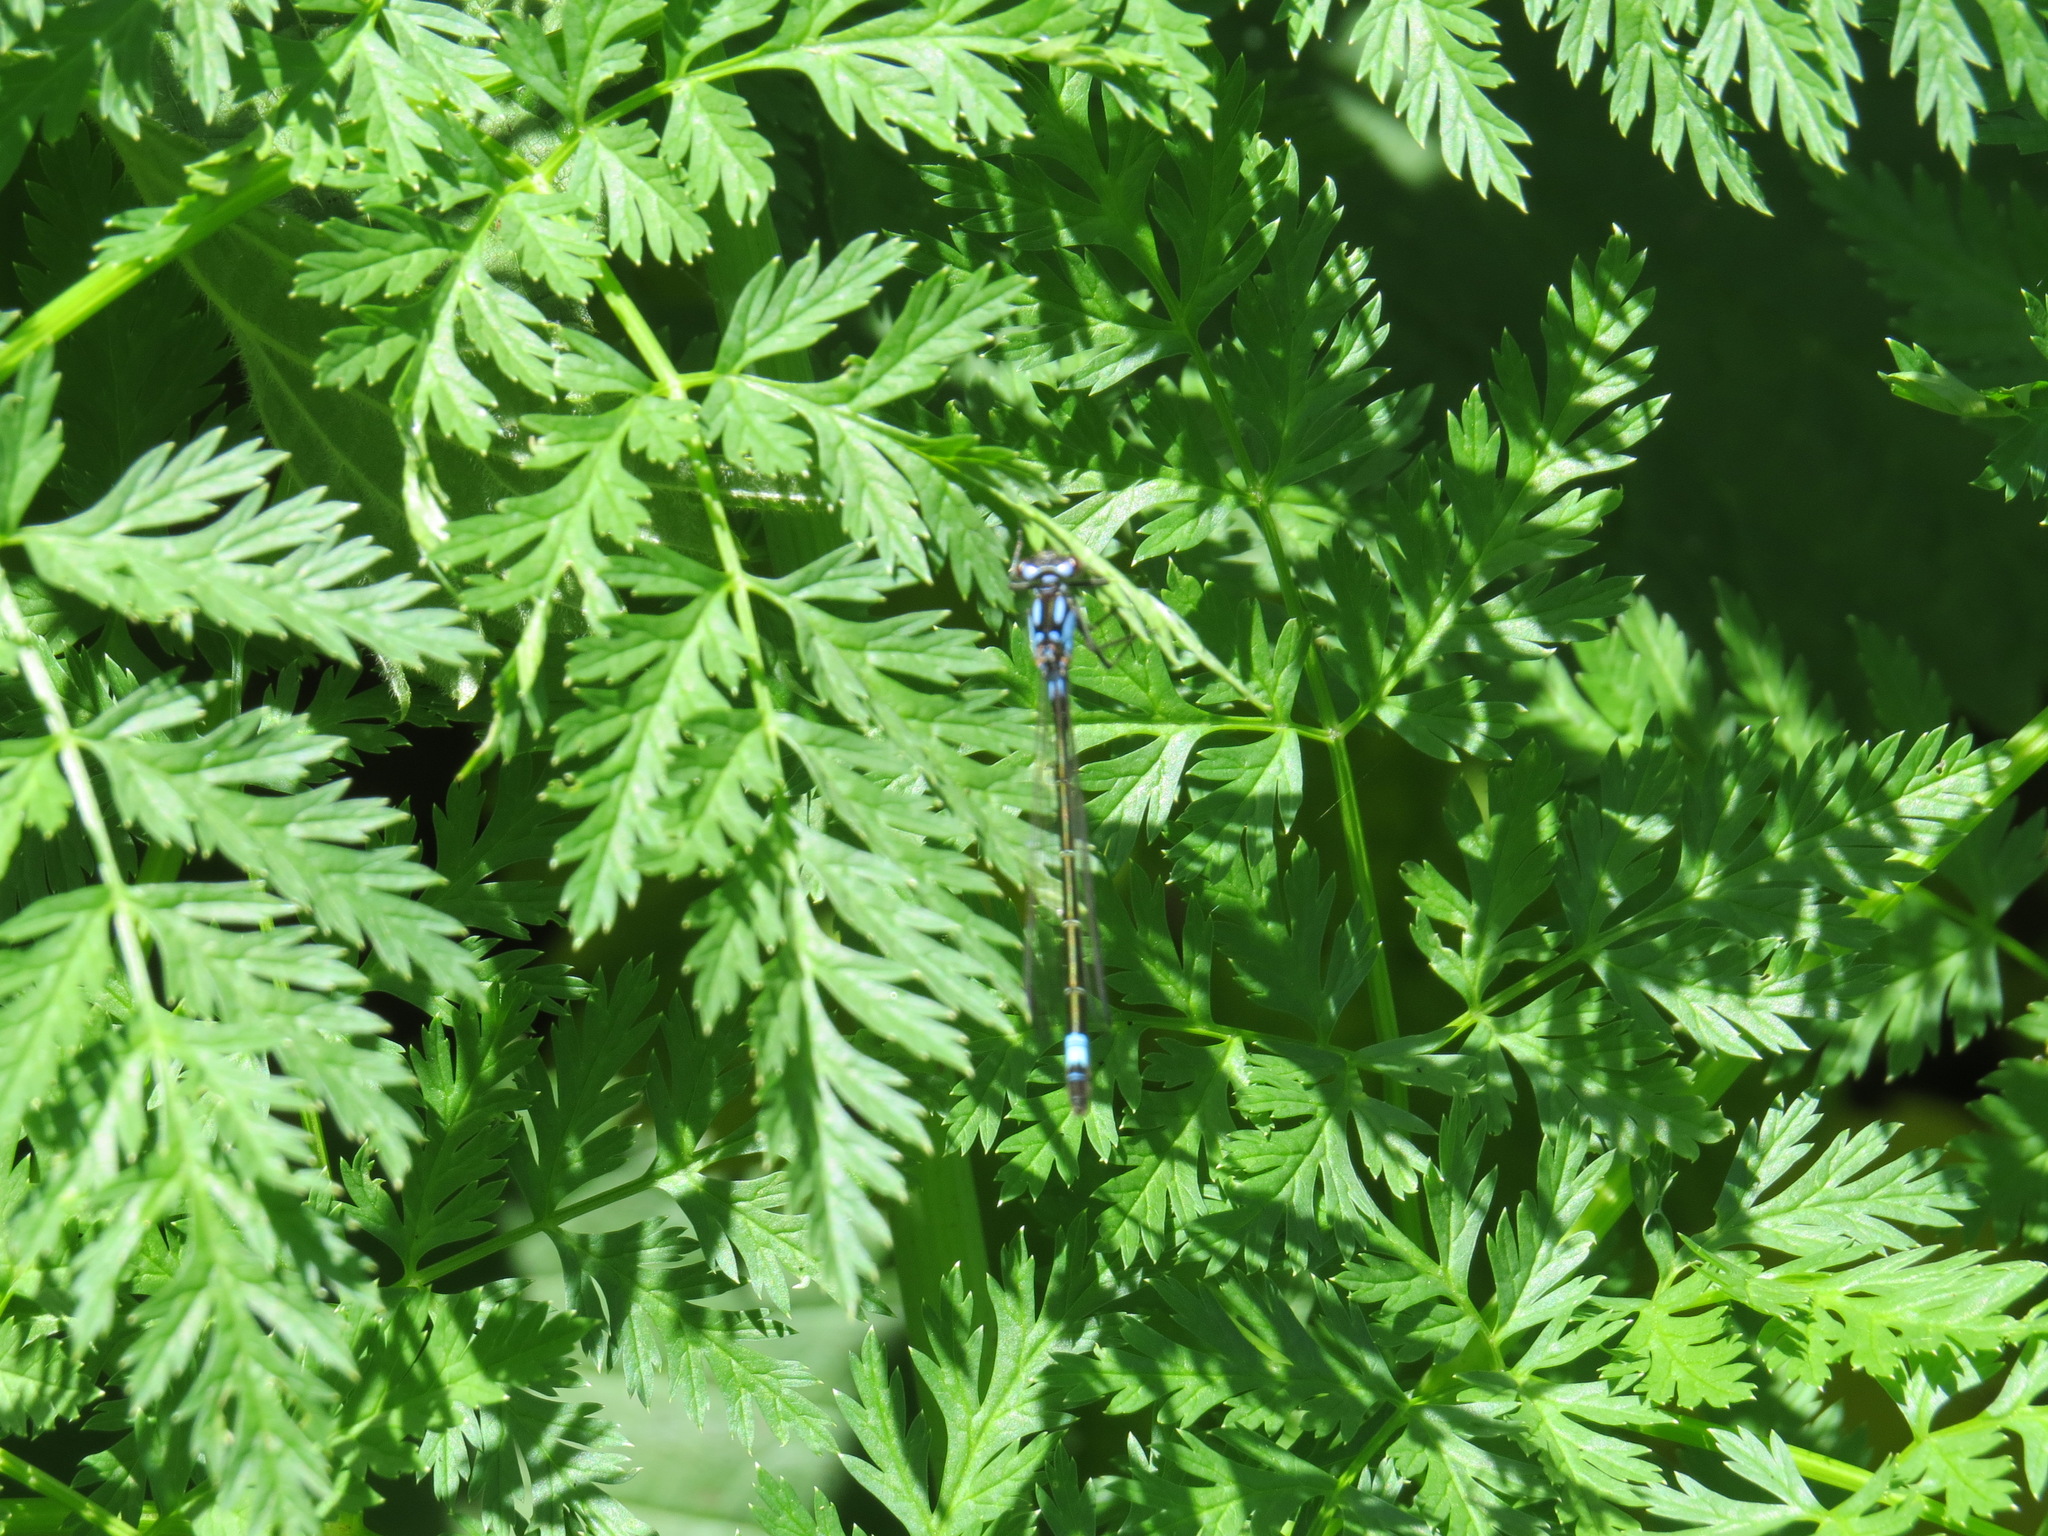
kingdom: Animalia
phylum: Arthropoda
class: Insecta
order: Odonata
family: Coenagrionidae
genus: Zoniagrion
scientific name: Zoniagrion exclamationis
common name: Exclamation damsel
